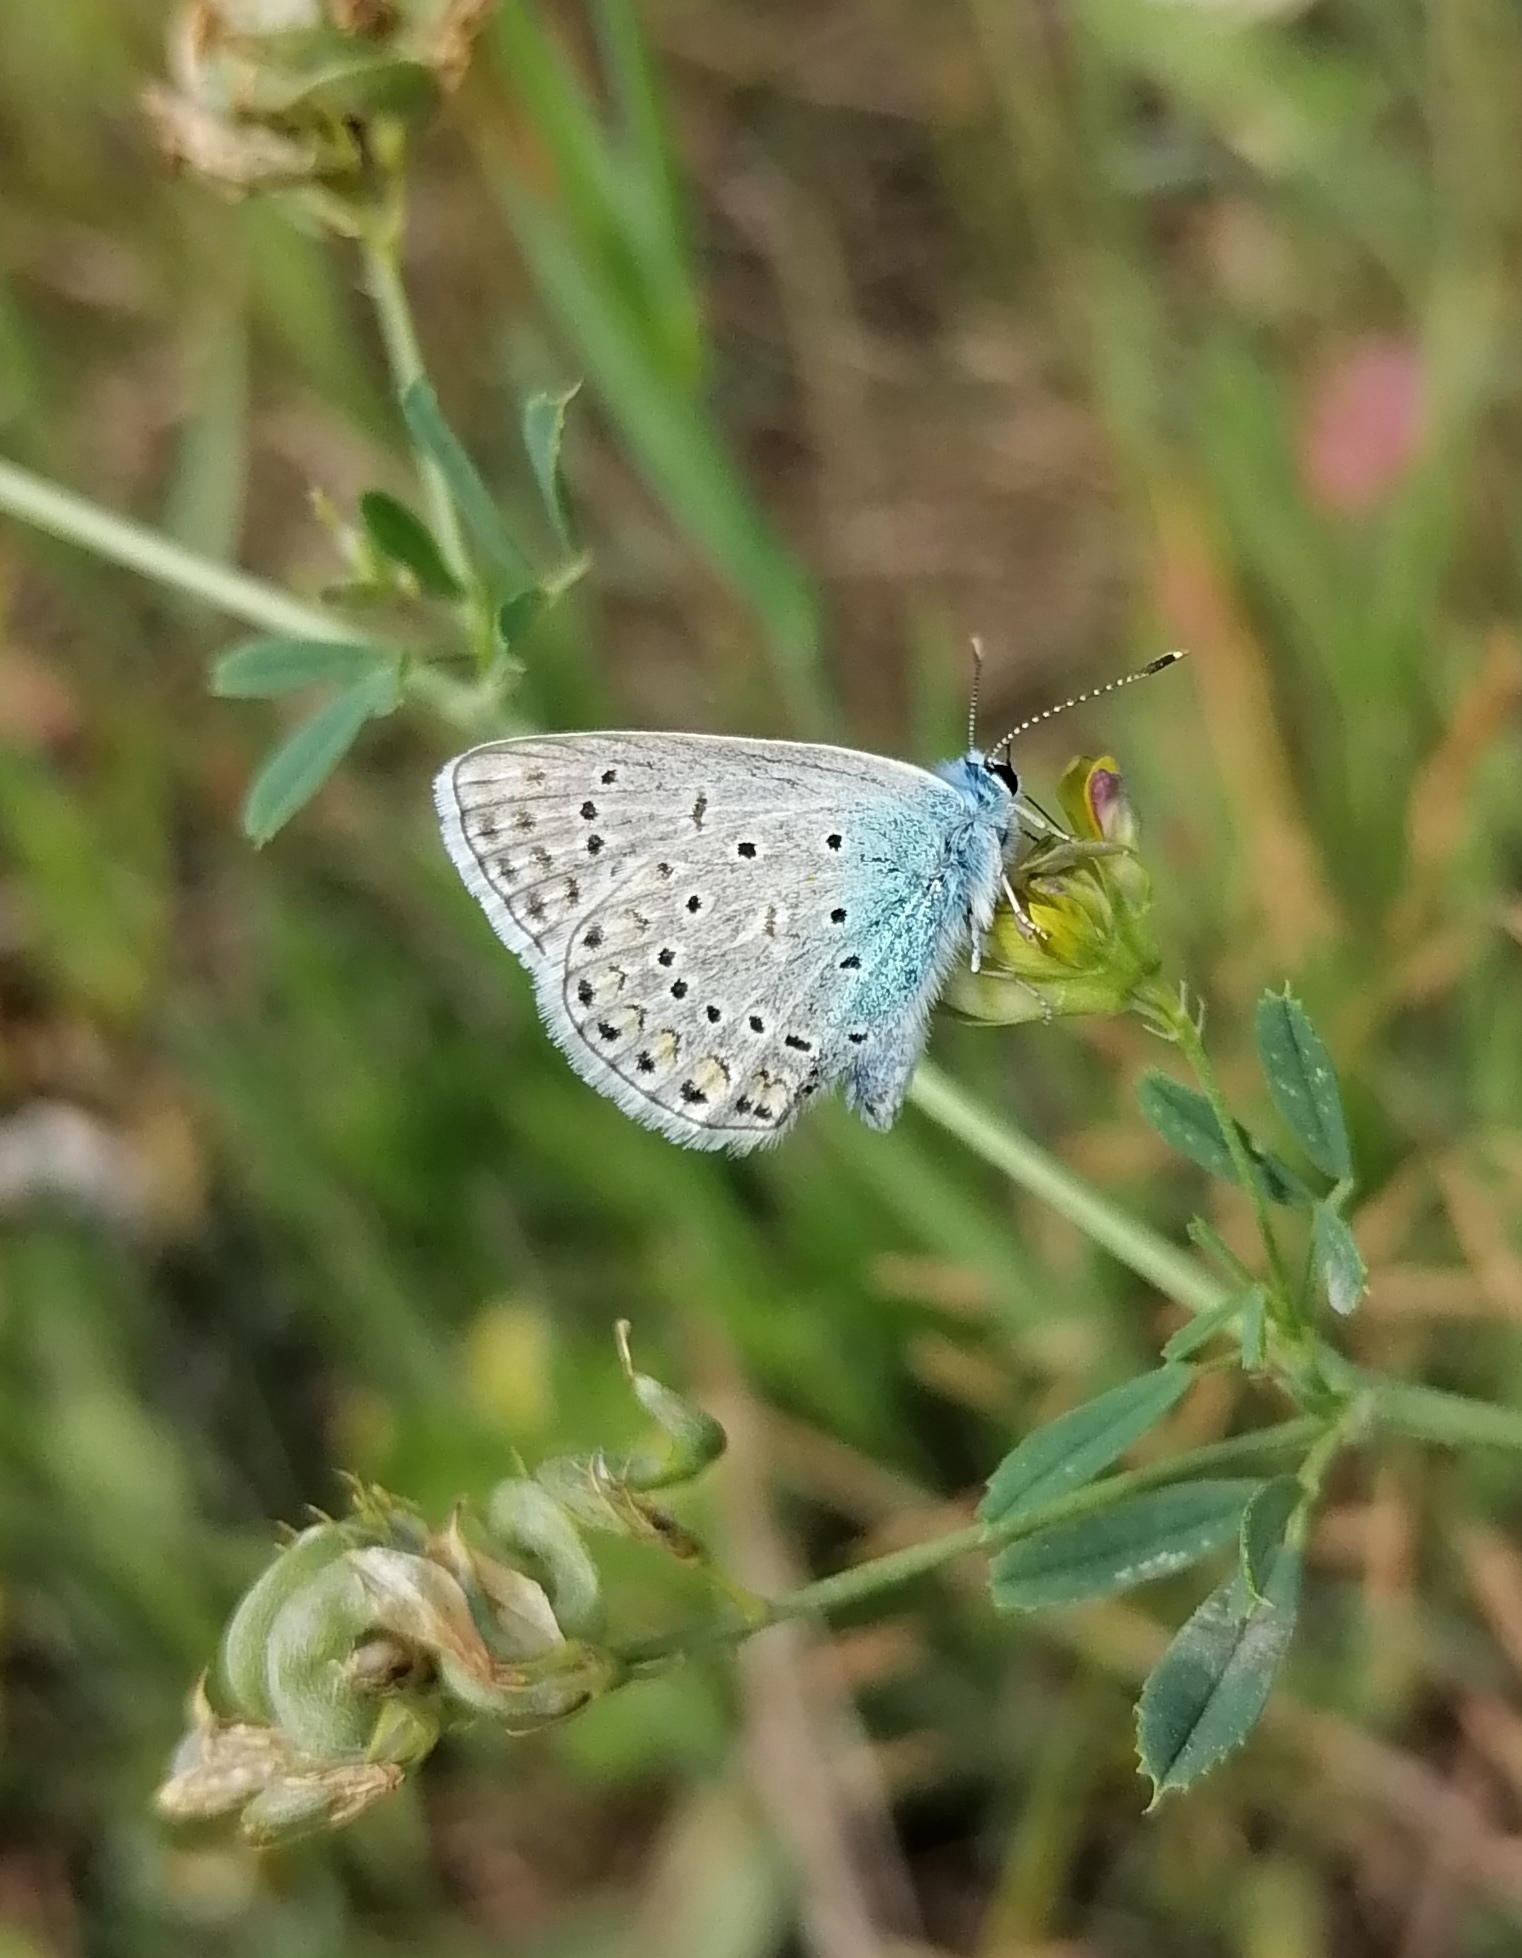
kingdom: Animalia
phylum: Arthropoda
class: Insecta
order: Lepidoptera
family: Lycaenidae
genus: Polyommatus
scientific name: Polyommatus icarus
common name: Common blue
